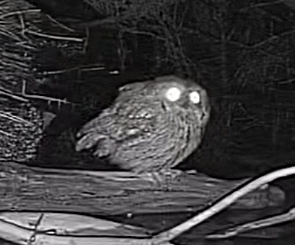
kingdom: Animalia
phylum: Chordata
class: Aves
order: Strigiformes
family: Strigidae
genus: Megascops
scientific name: Megascops asio
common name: Eastern screech-owl
